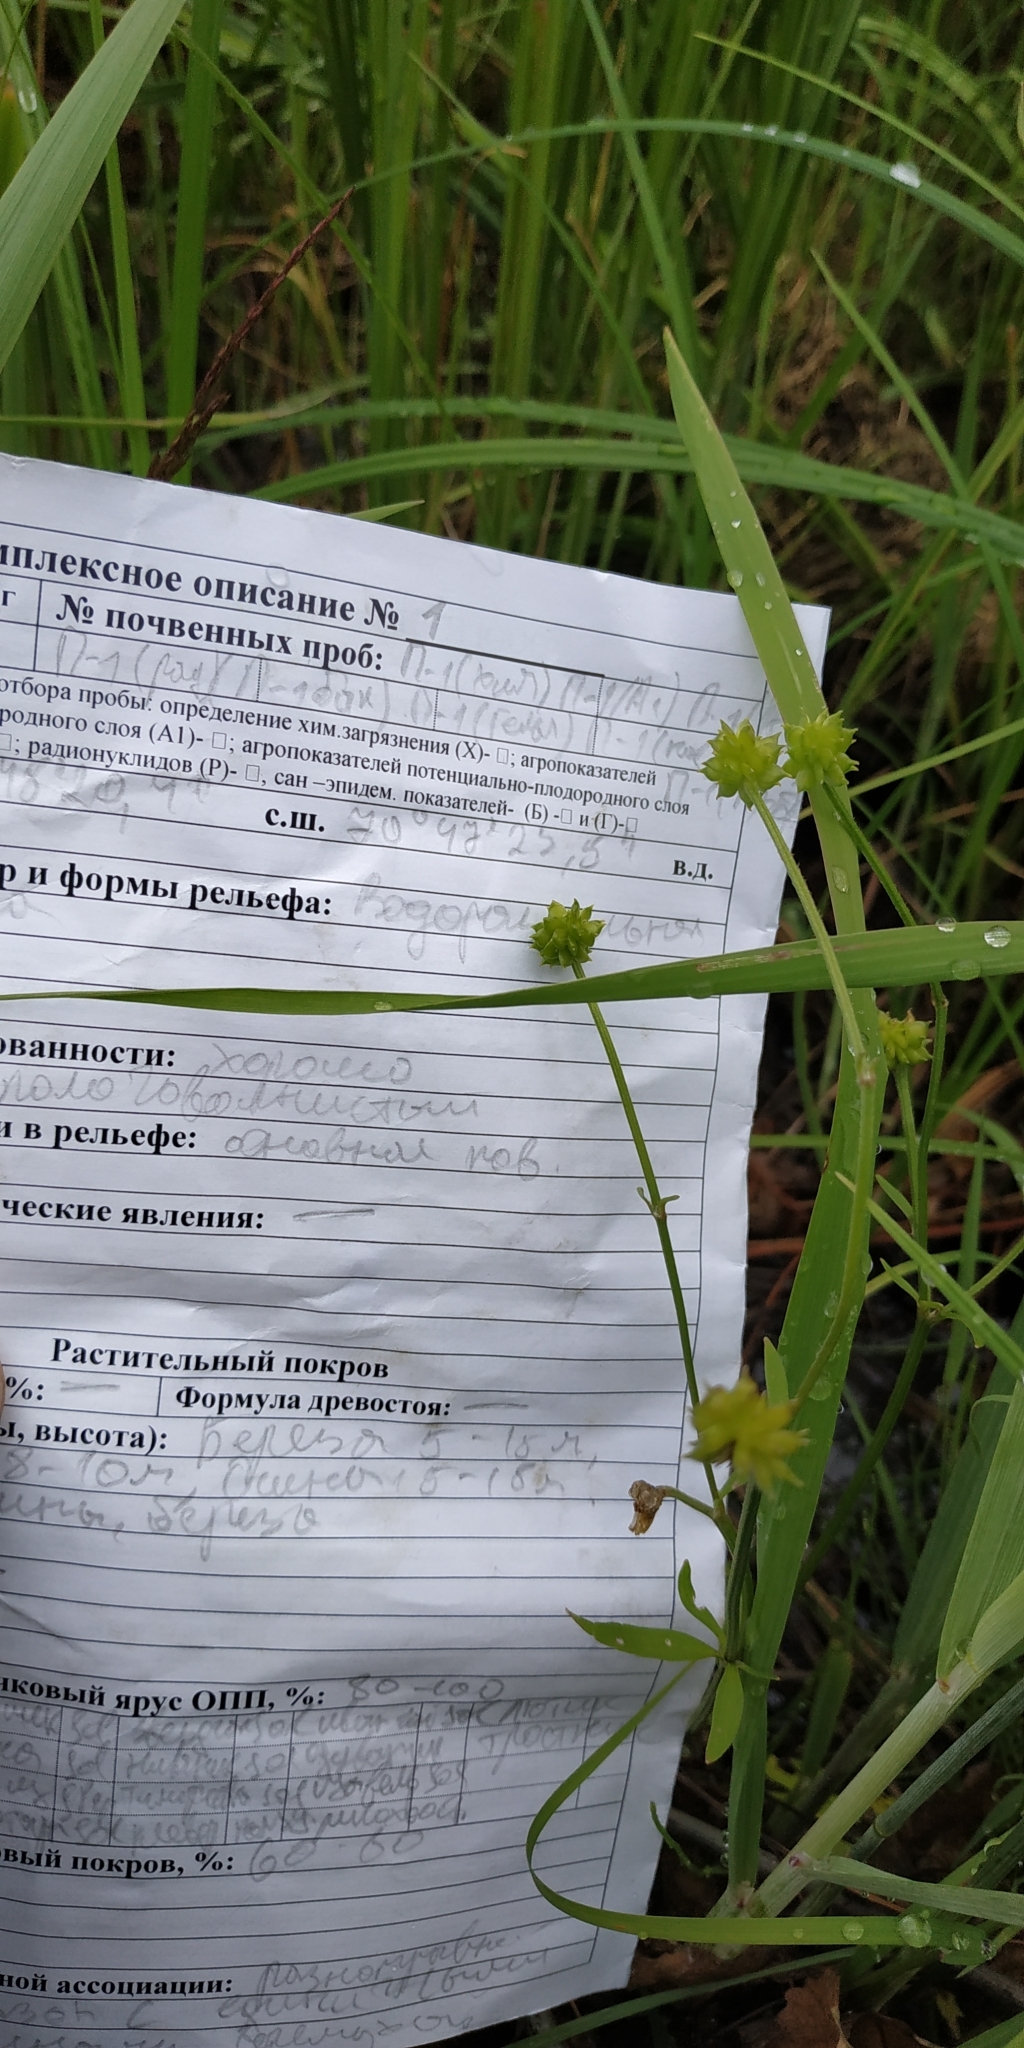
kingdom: Plantae
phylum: Tracheophyta
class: Magnoliopsida
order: Ranunculales
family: Ranunculaceae
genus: Ranunculus
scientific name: Ranunculus repens
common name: Creeping buttercup
